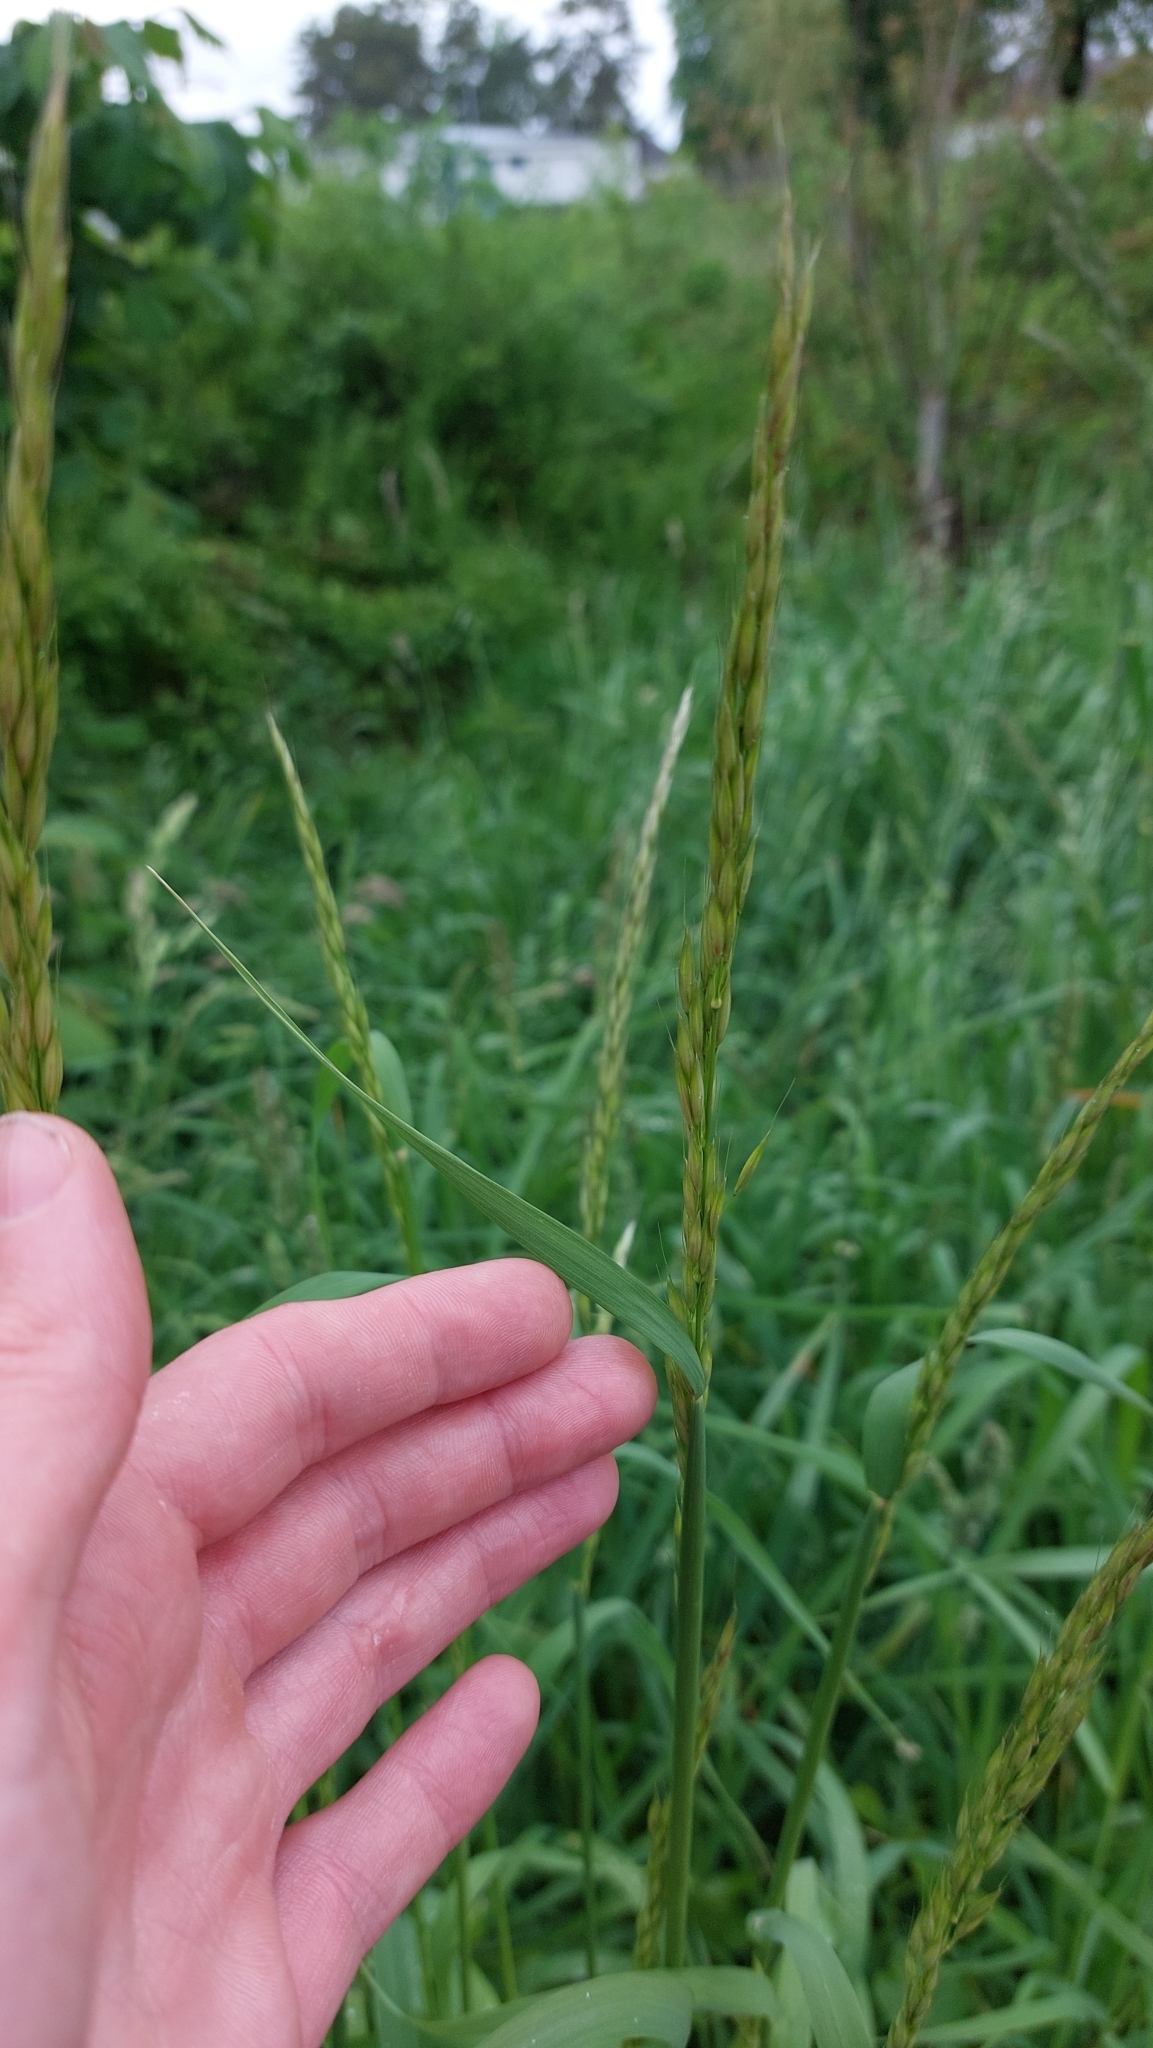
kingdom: Plantae
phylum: Tracheophyta
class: Liliopsida
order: Poales
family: Poaceae
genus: Arrhenatherum
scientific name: Arrhenatherum elatius
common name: Tall oatgrass
